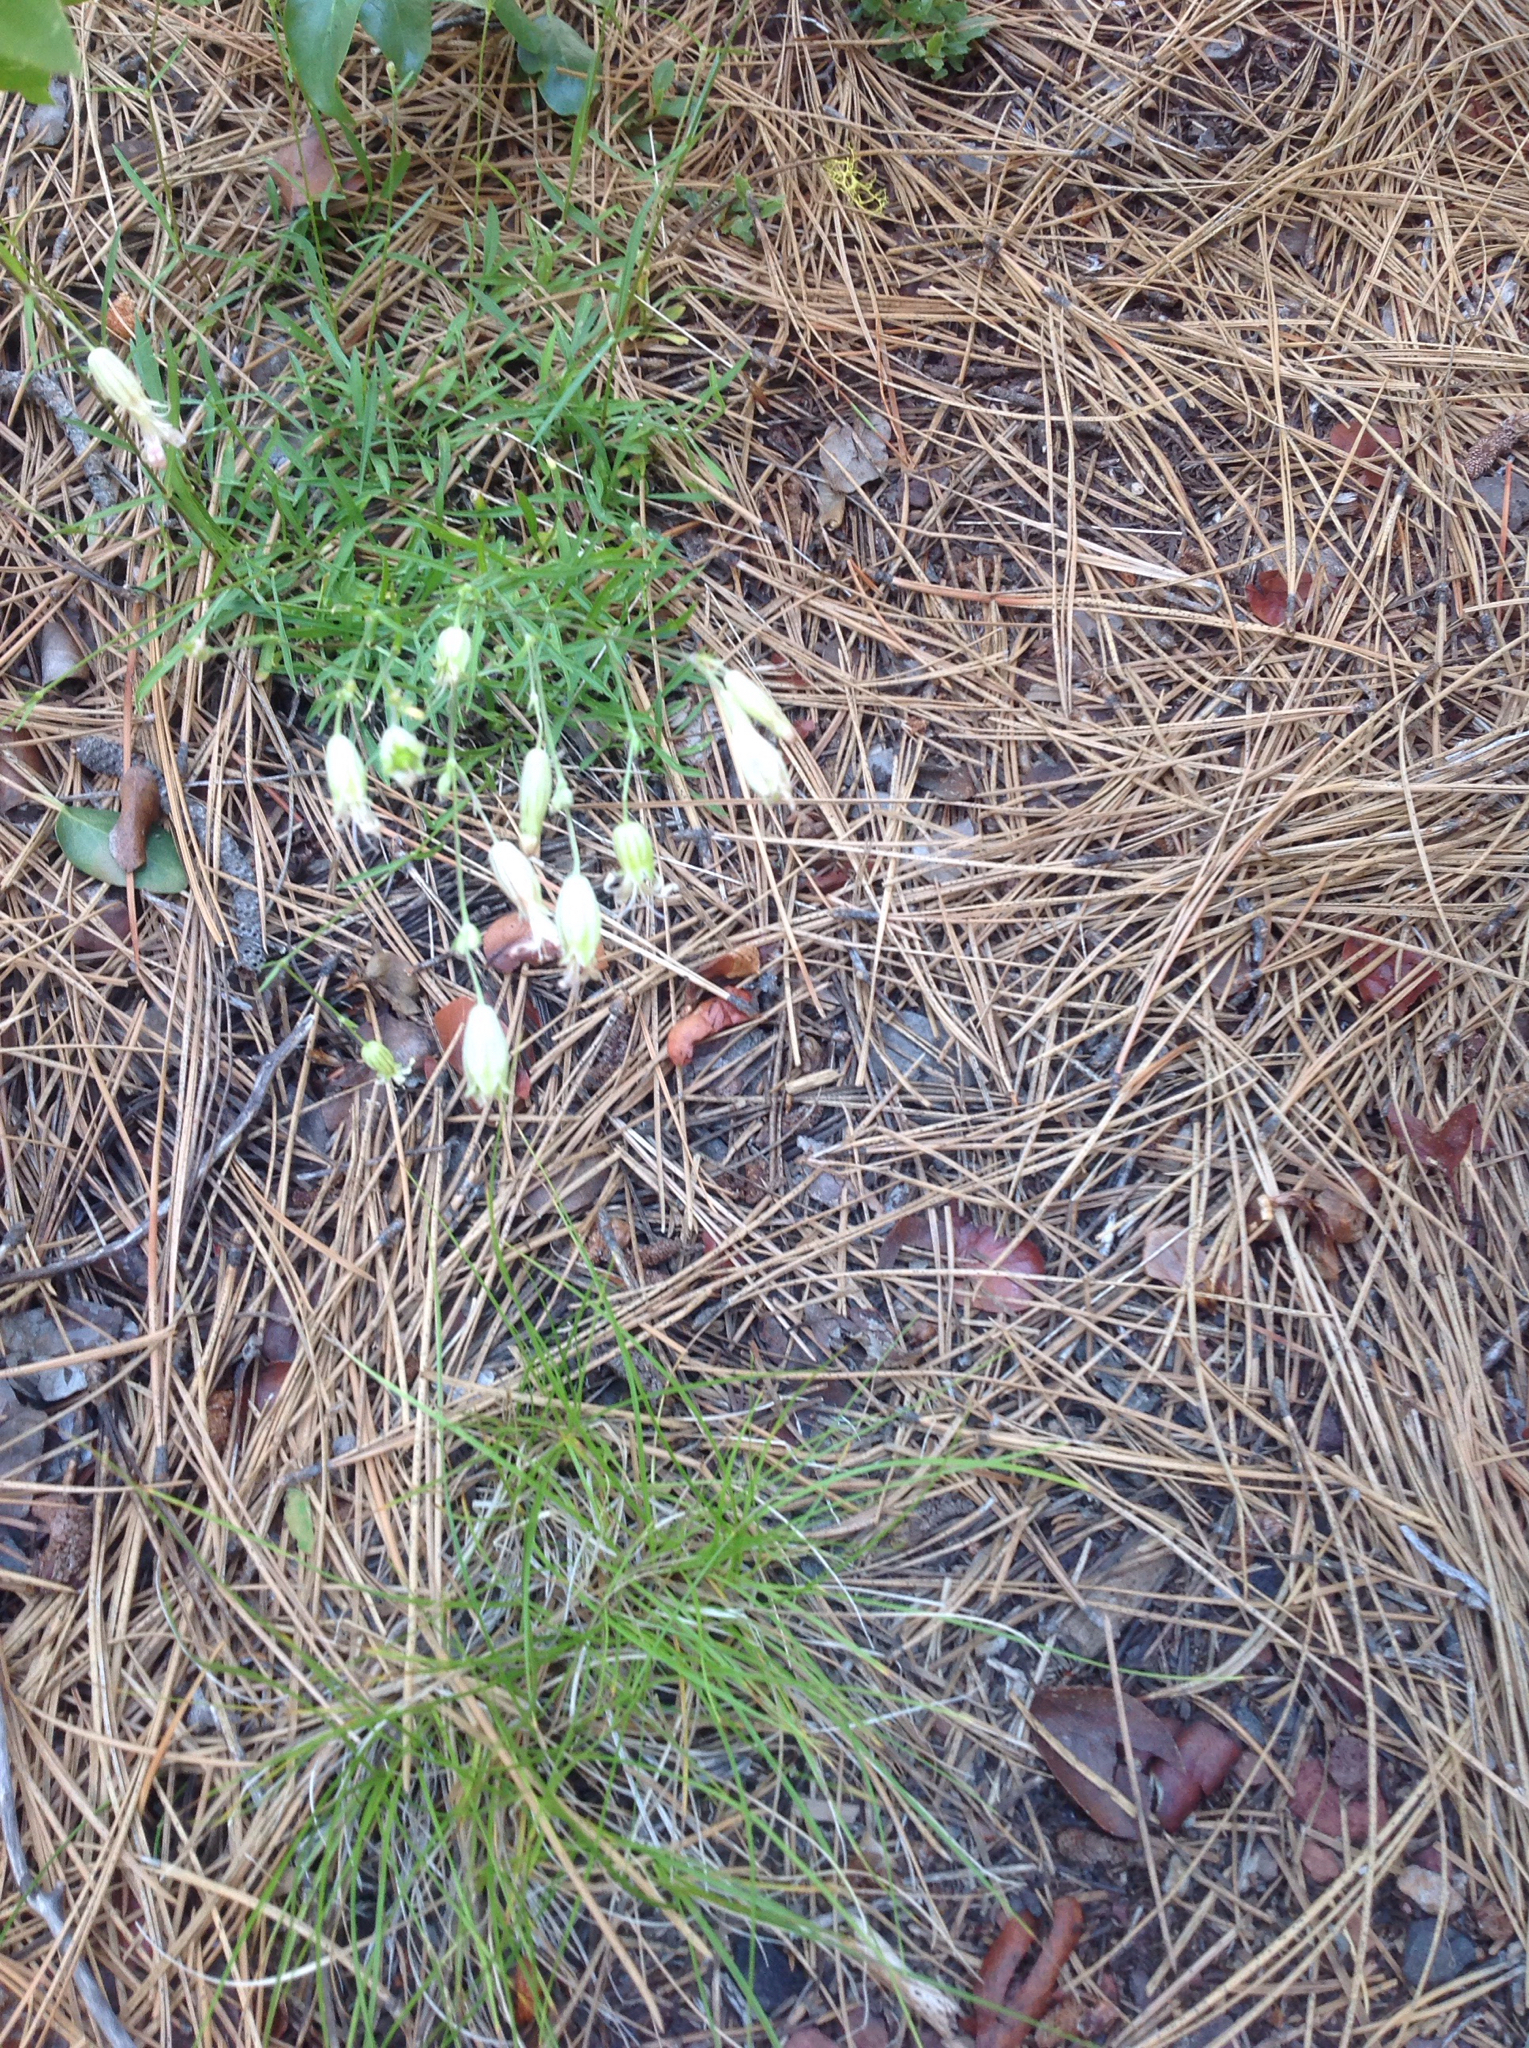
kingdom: Plantae
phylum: Tracheophyta
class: Magnoliopsida
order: Caryophyllales
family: Caryophyllaceae
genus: Silene
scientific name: Silene douglasii
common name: Douglas's catchfly
